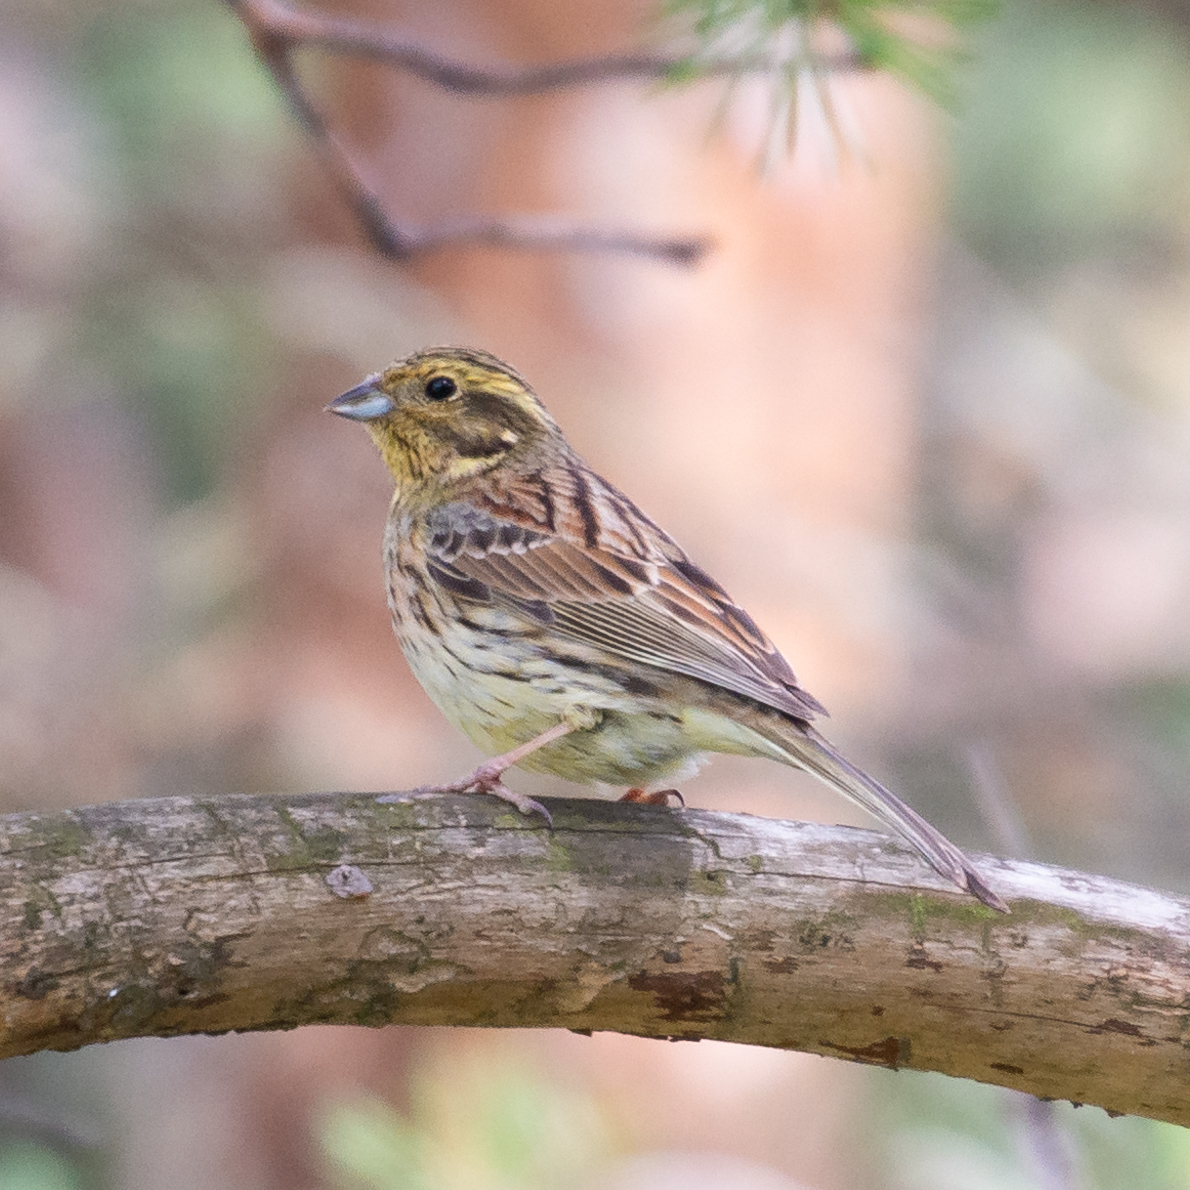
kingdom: Animalia
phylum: Chordata
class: Aves
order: Passeriformes
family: Emberizidae
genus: Emberiza
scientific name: Emberiza citrinella
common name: Yellowhammer
